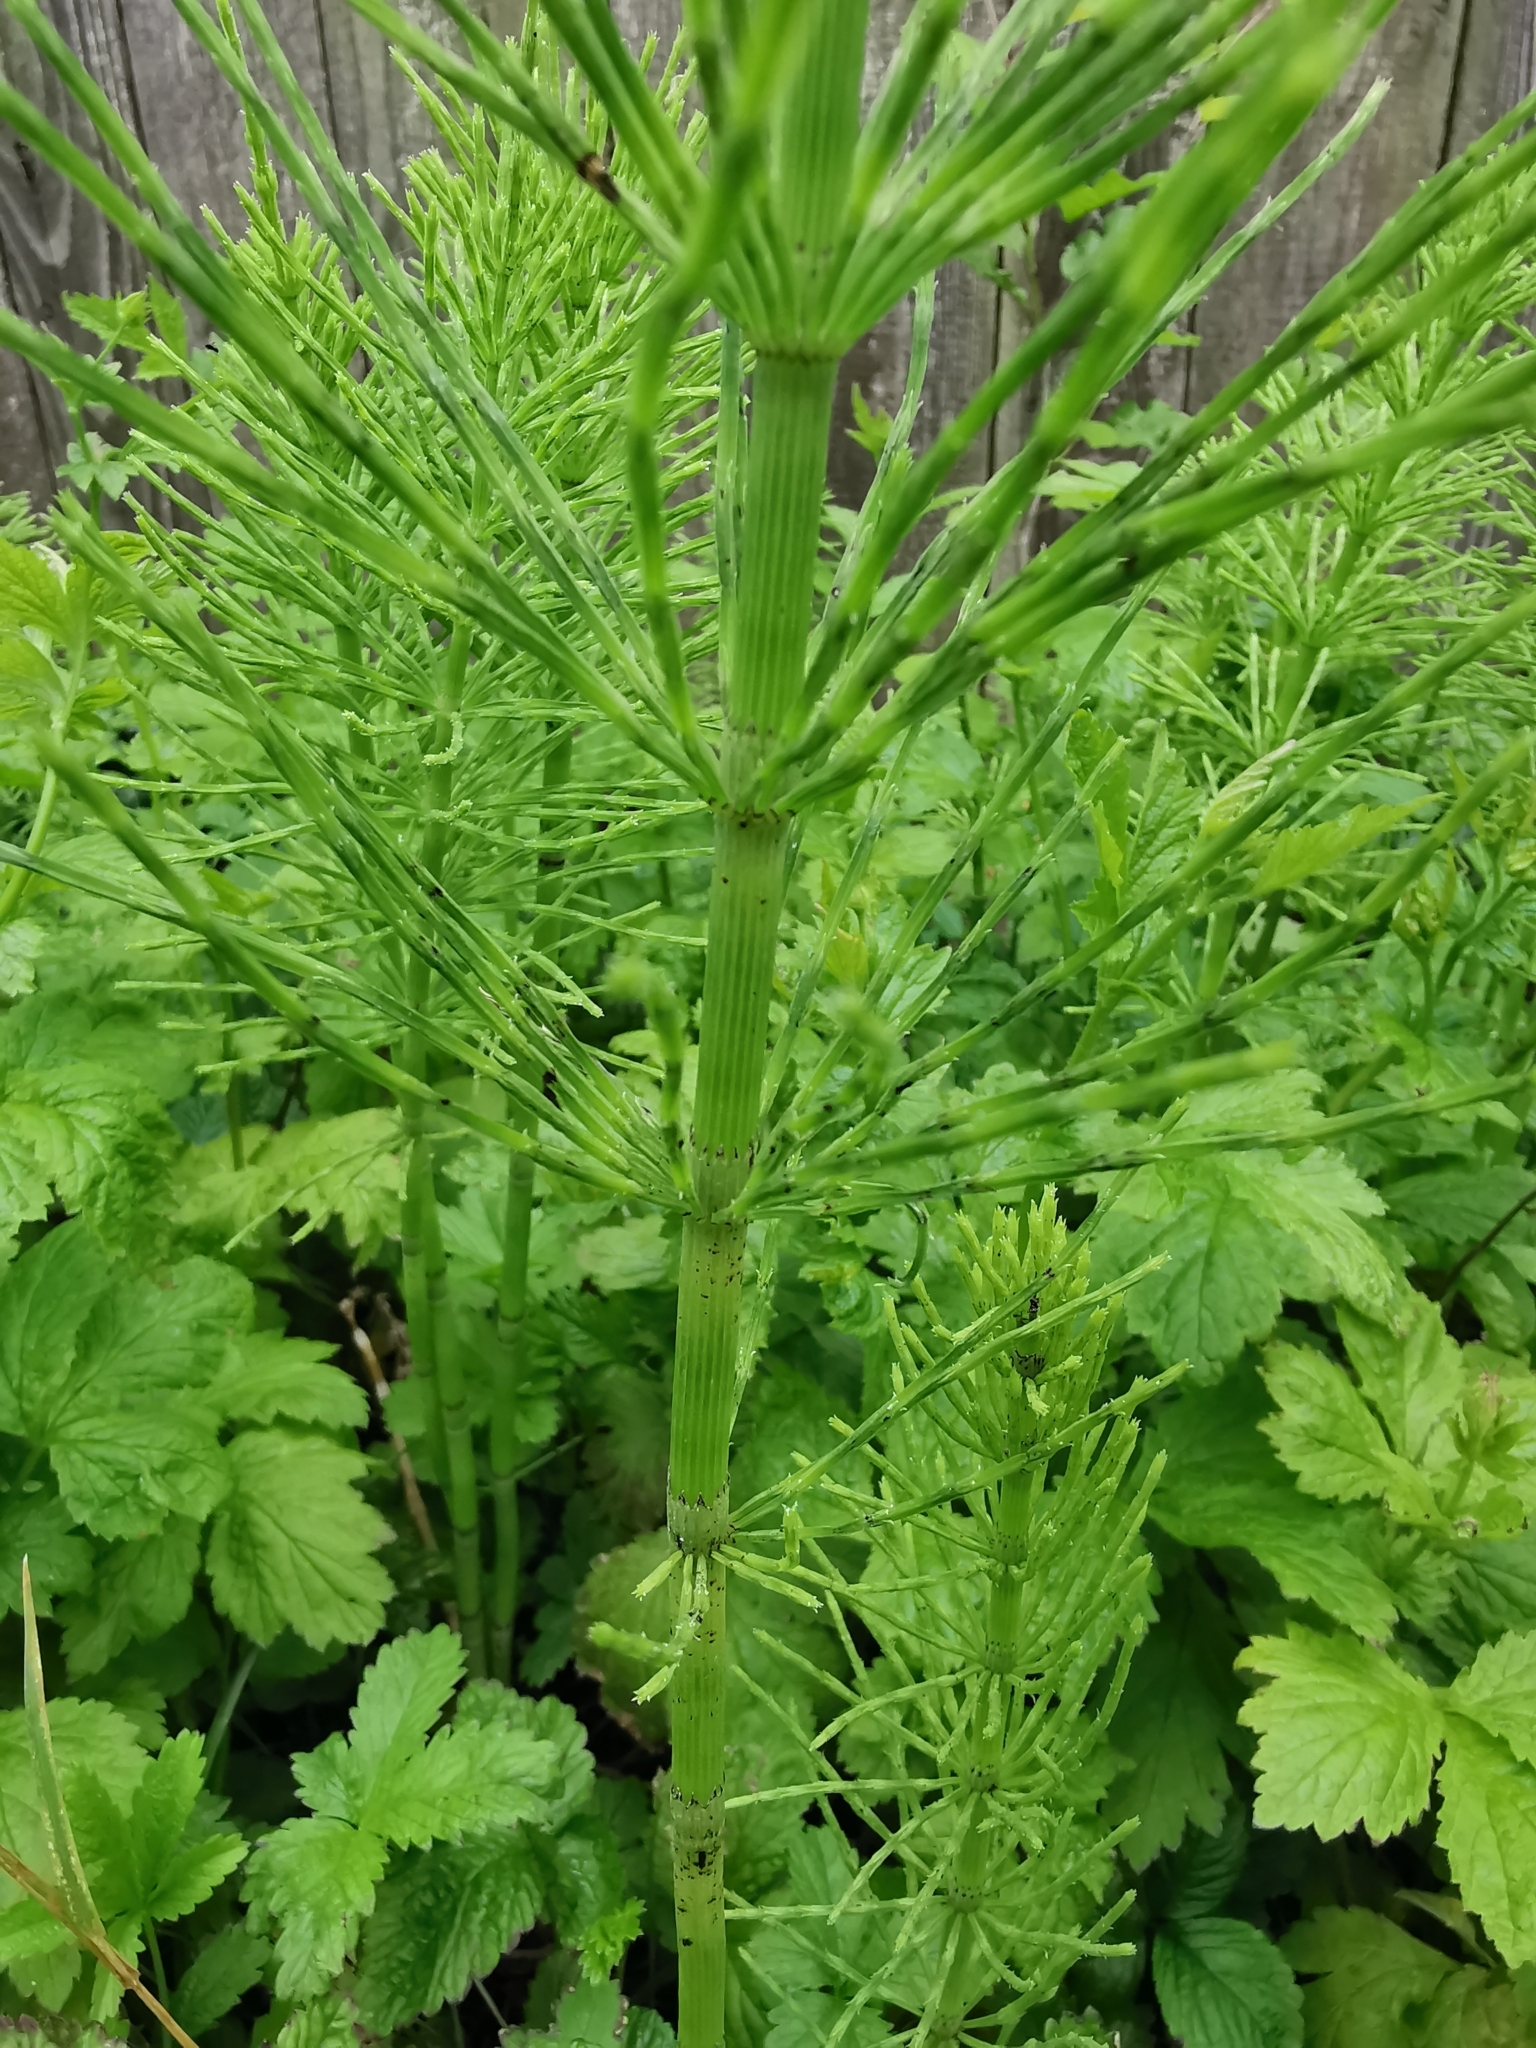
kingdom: Plantae
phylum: Tracheophyta
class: Polypodiopsida
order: Equisetales
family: Equisetaceae
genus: Equisetum
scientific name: Equisetum arvense
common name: Field horsetail
